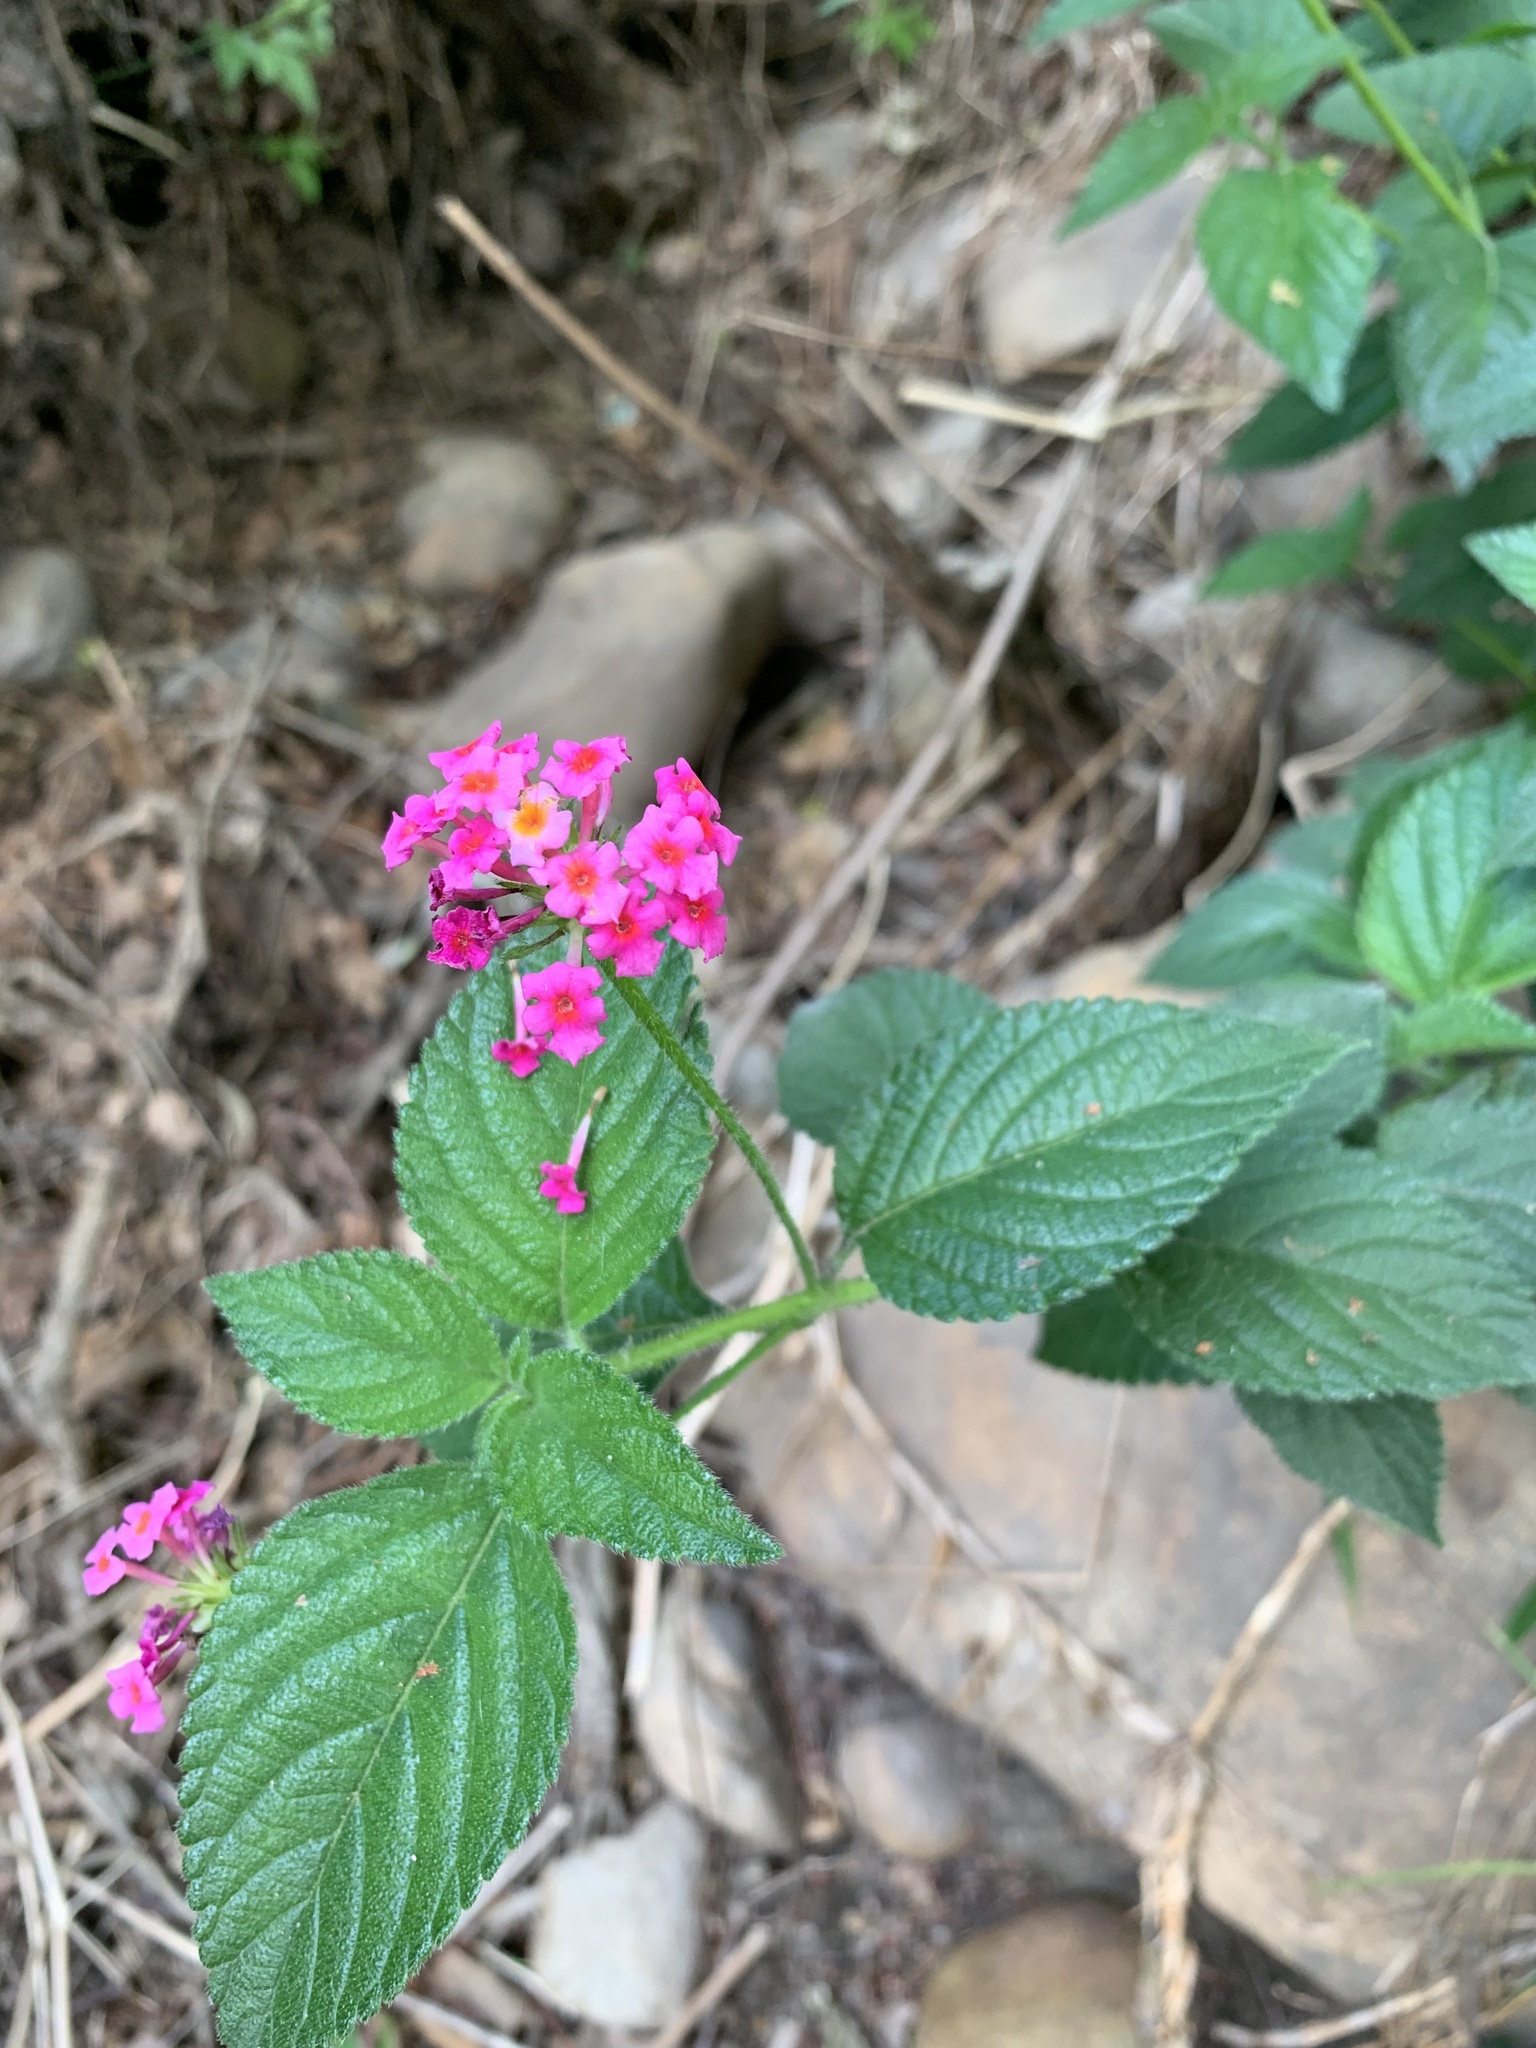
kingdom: Plantae
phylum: Tracheophyta
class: Magnoliopsida
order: Lamiales
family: Verbenaceae
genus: Lantana
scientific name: Lantana camara
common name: Lantana
